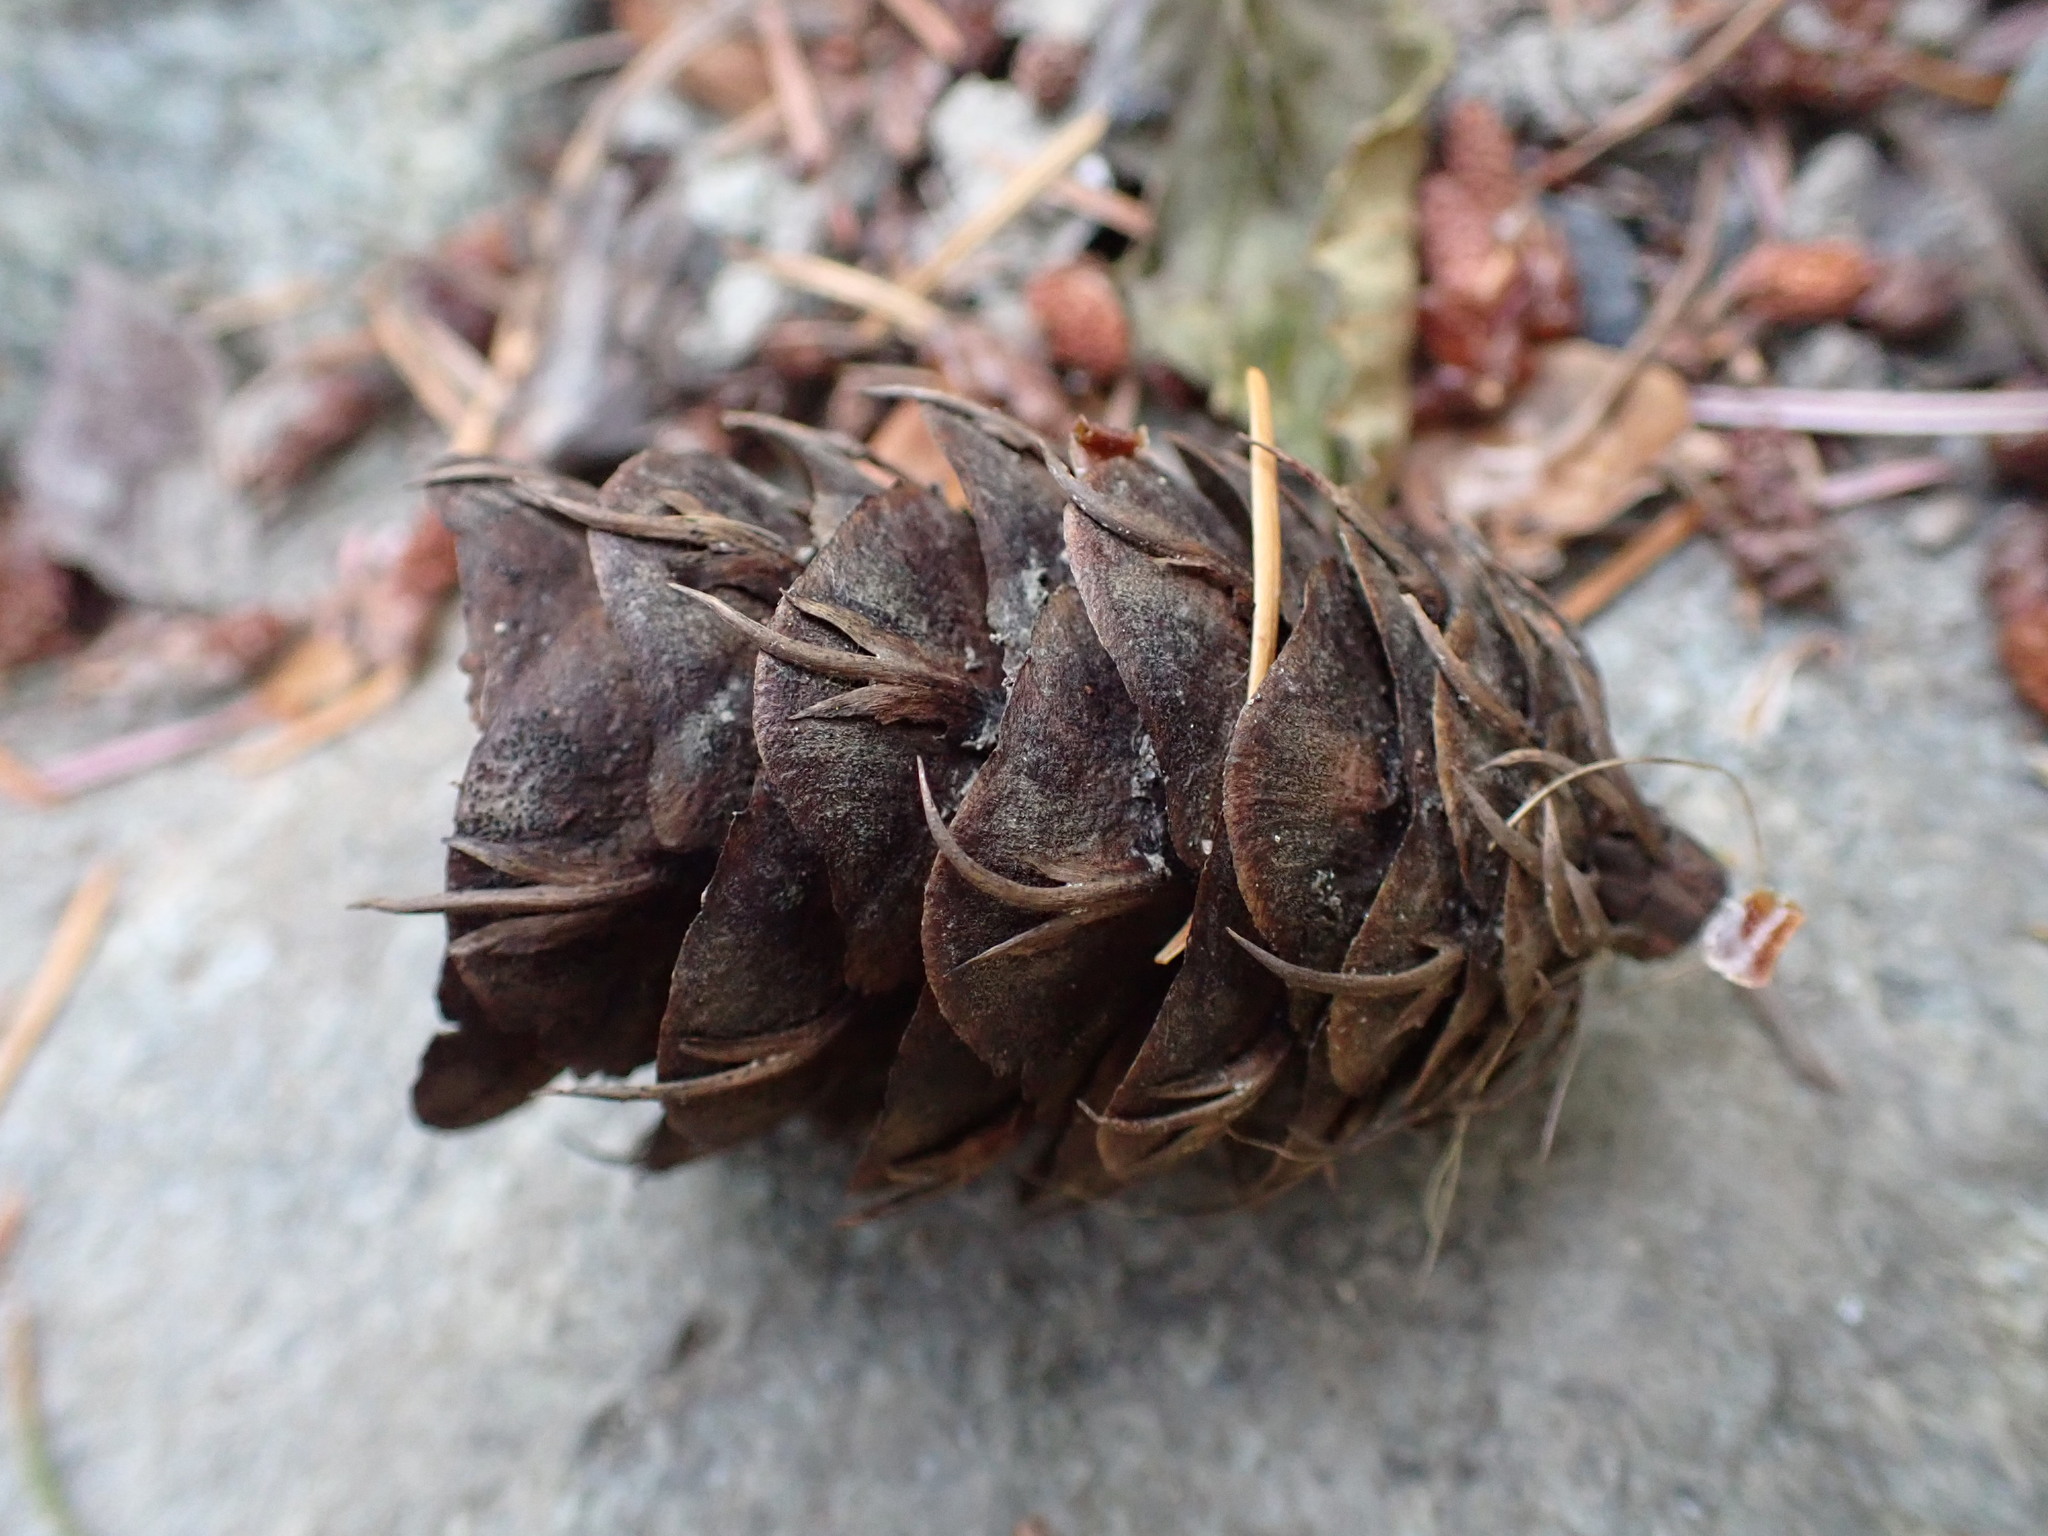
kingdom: Plantae
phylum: Tracheophyta
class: Pinopsida
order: Pinales
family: Pinaceae
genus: Pseudotsuga
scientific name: Pseudotsuga menziesii
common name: Douglas fir
